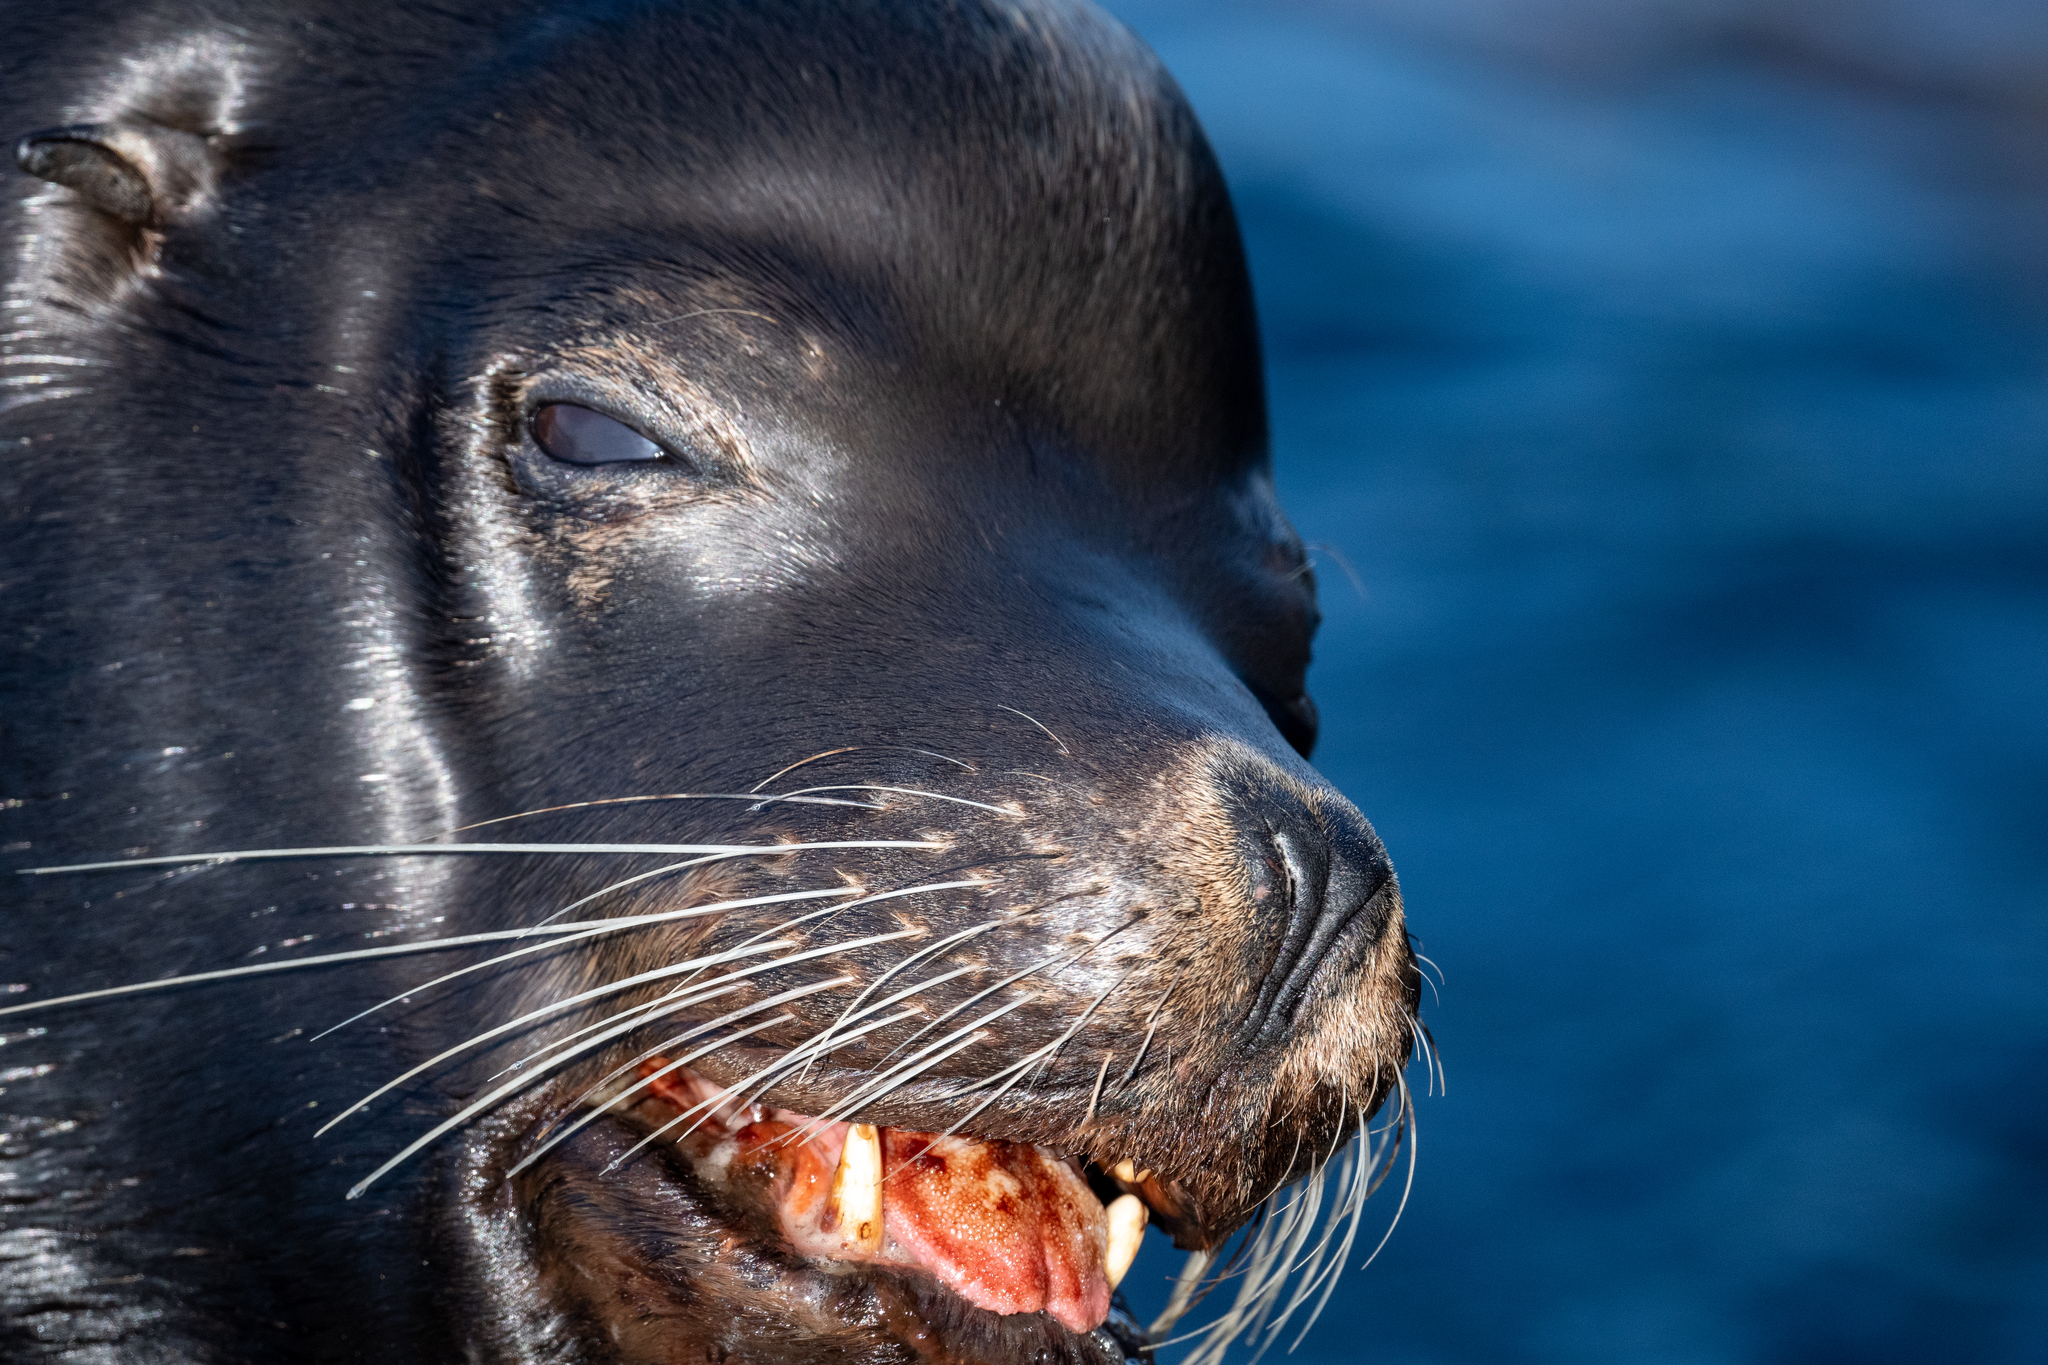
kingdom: Animalia
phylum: Chordata
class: Mammalia
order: Carnivora
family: Otariidae
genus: Zalophus
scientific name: Zalophus californianus
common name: California sea lion
